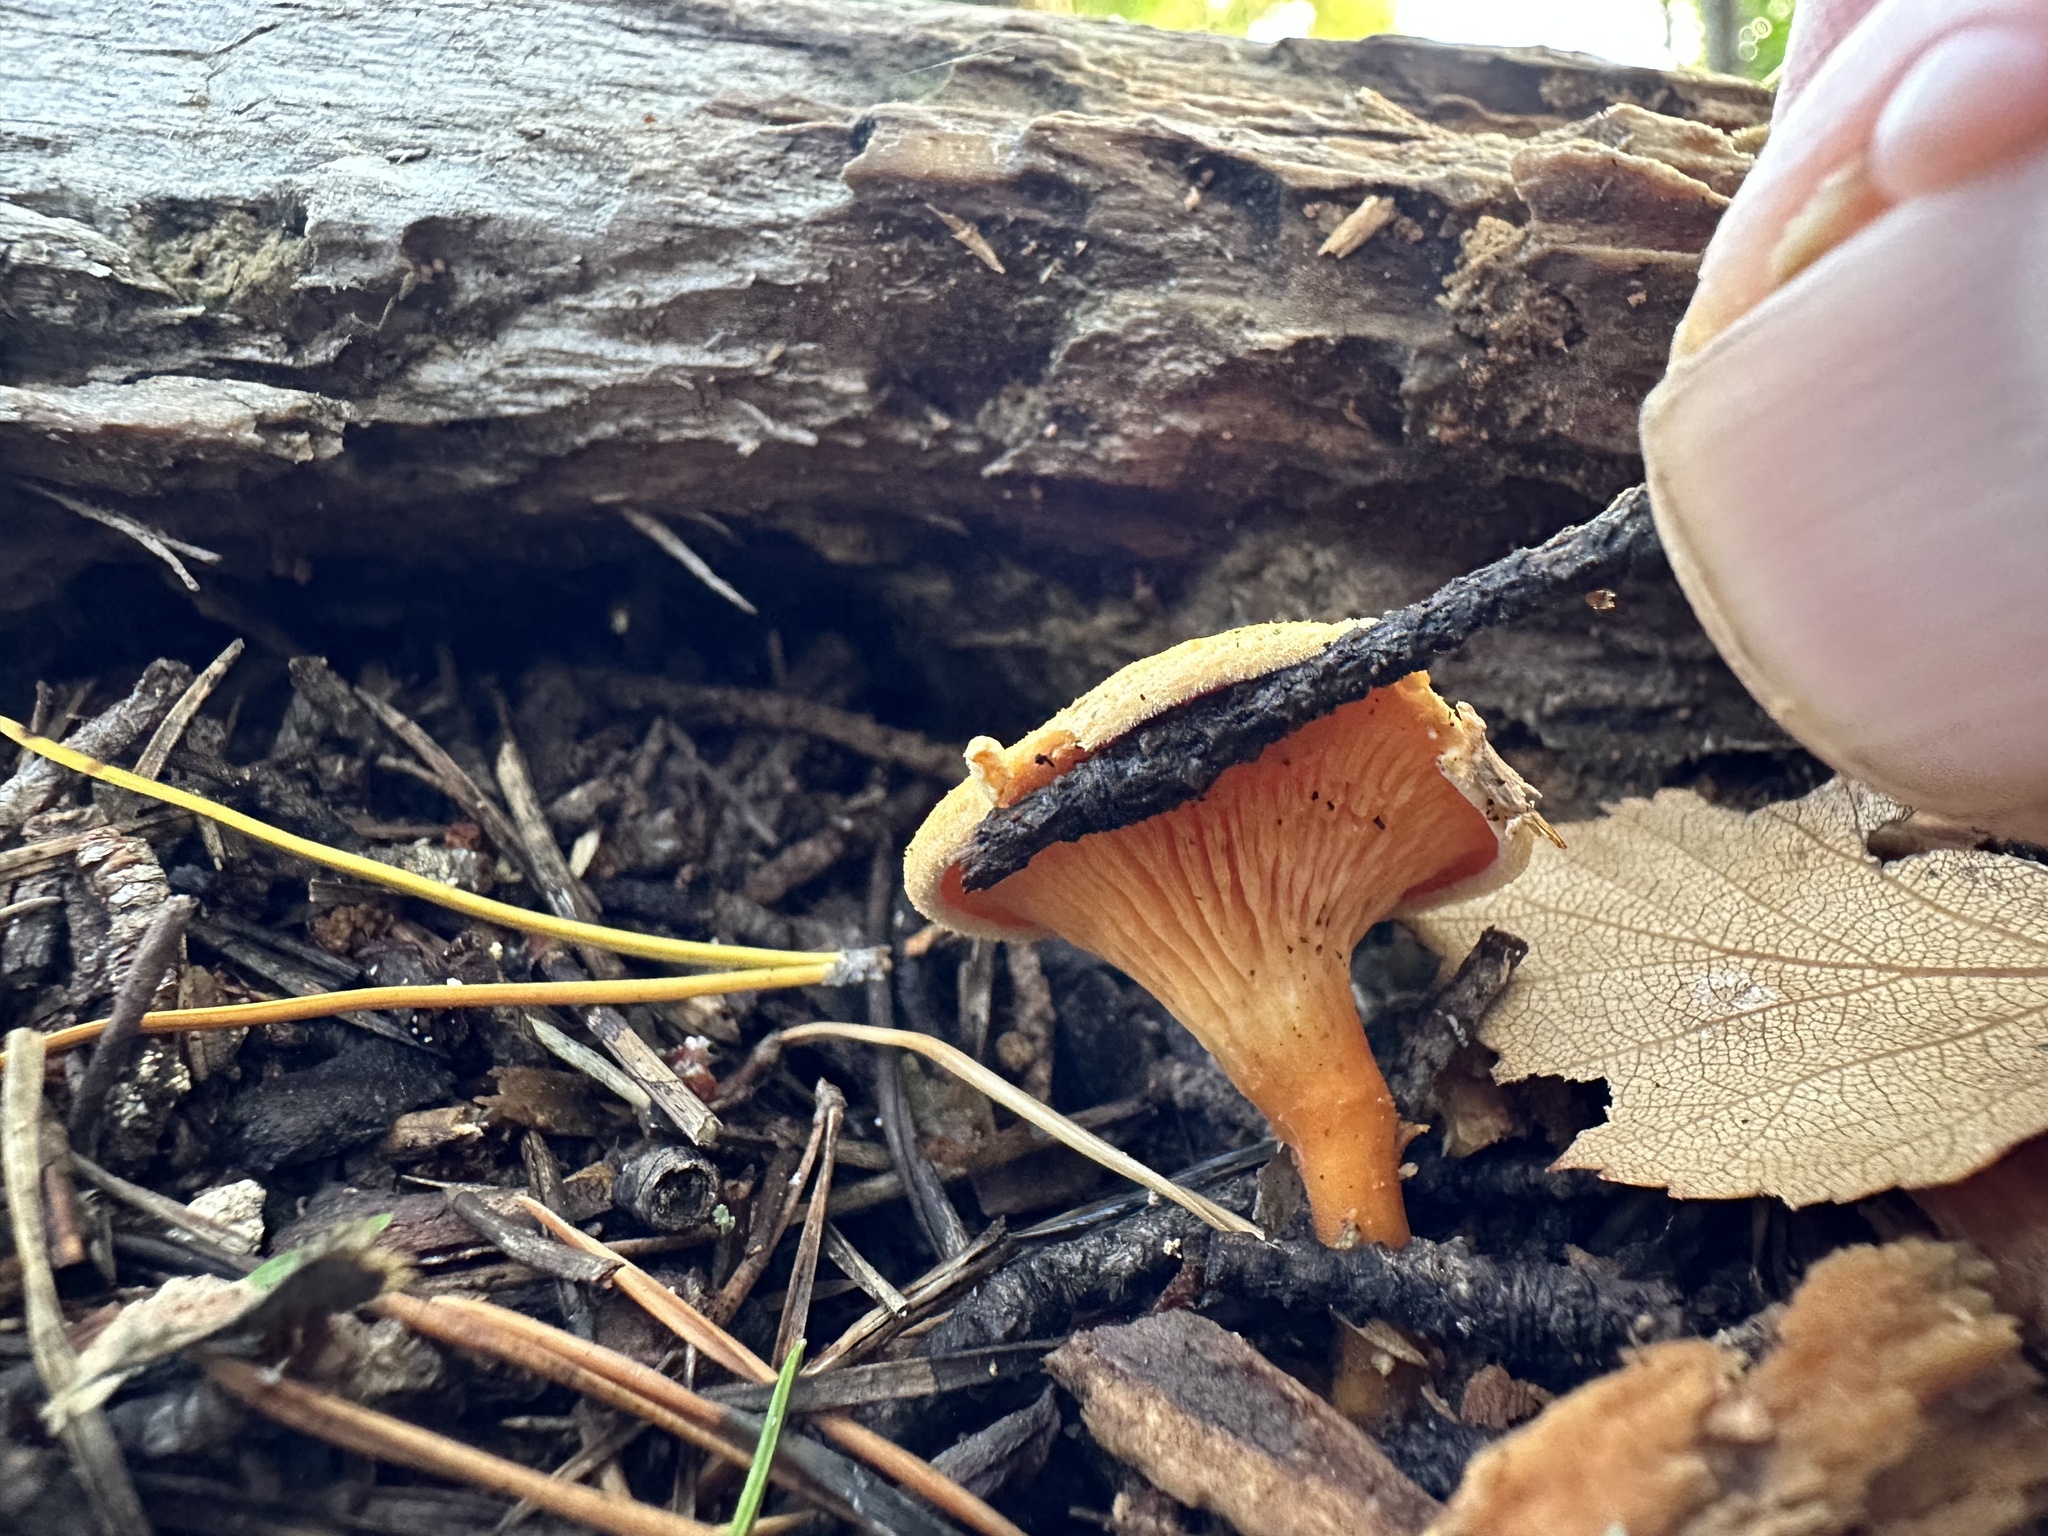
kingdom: Fungi
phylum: Basidiomycota
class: Agaricomycetes
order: Boletales
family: Hygrophoropsidaceae
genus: Hygrophoropsis
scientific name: Hygrophoropsis aurantiaca
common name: False chanterelle
